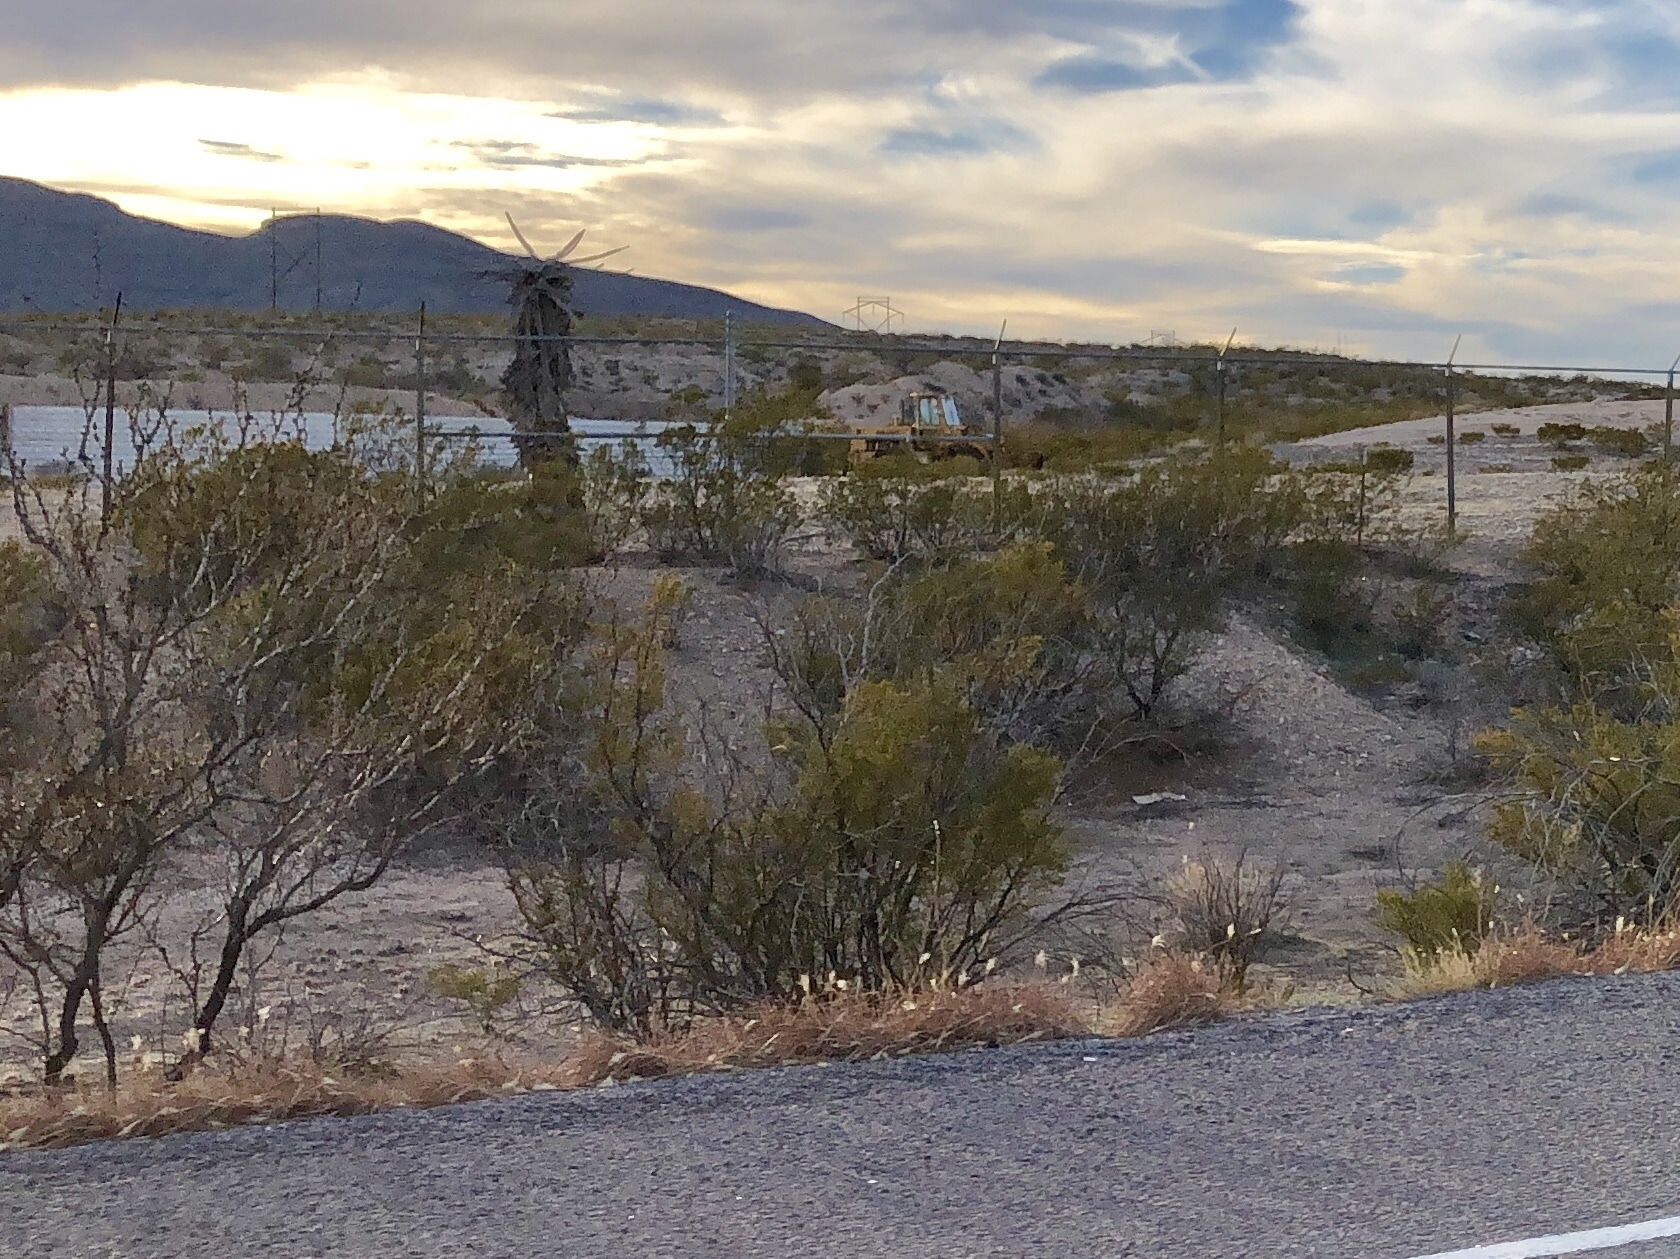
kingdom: Plantae
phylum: Tracheophyta
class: Magnoliopsida
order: Zygophyllales
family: Zygophyllaceae
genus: Larrea
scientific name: Larrea tridentata
